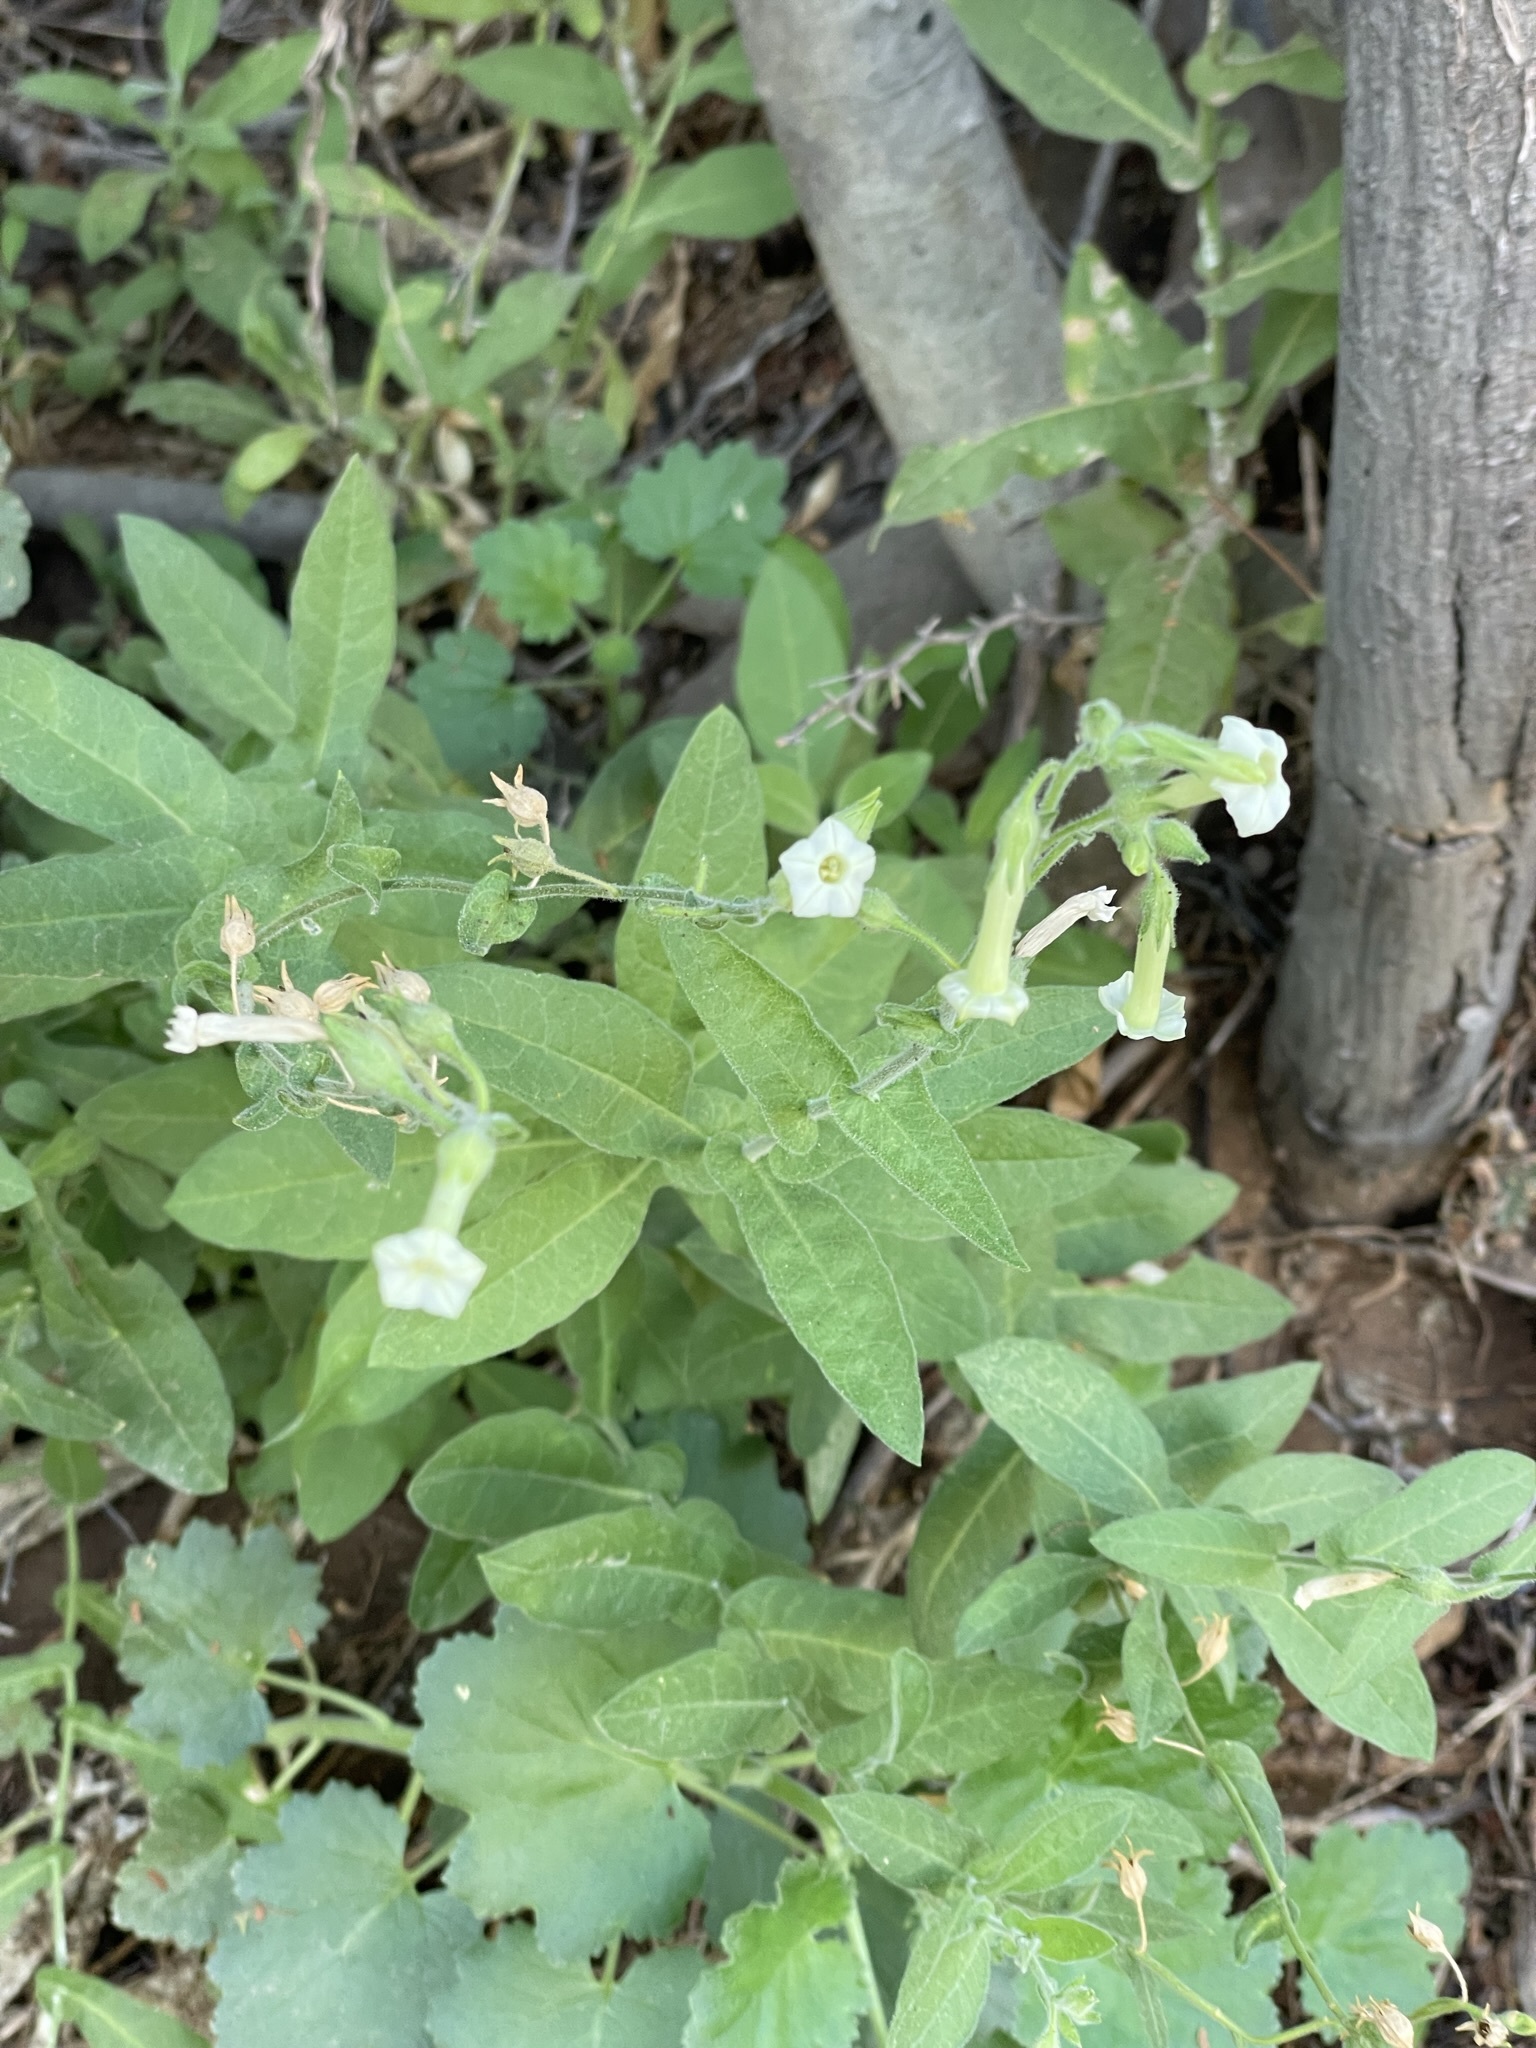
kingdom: Plantae
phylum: Tracheophyta
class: Magnoliopsida
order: Solanales
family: Solanaceae
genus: Nicotiana
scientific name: Nicotiana obtusifolia
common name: Desert tobacco
